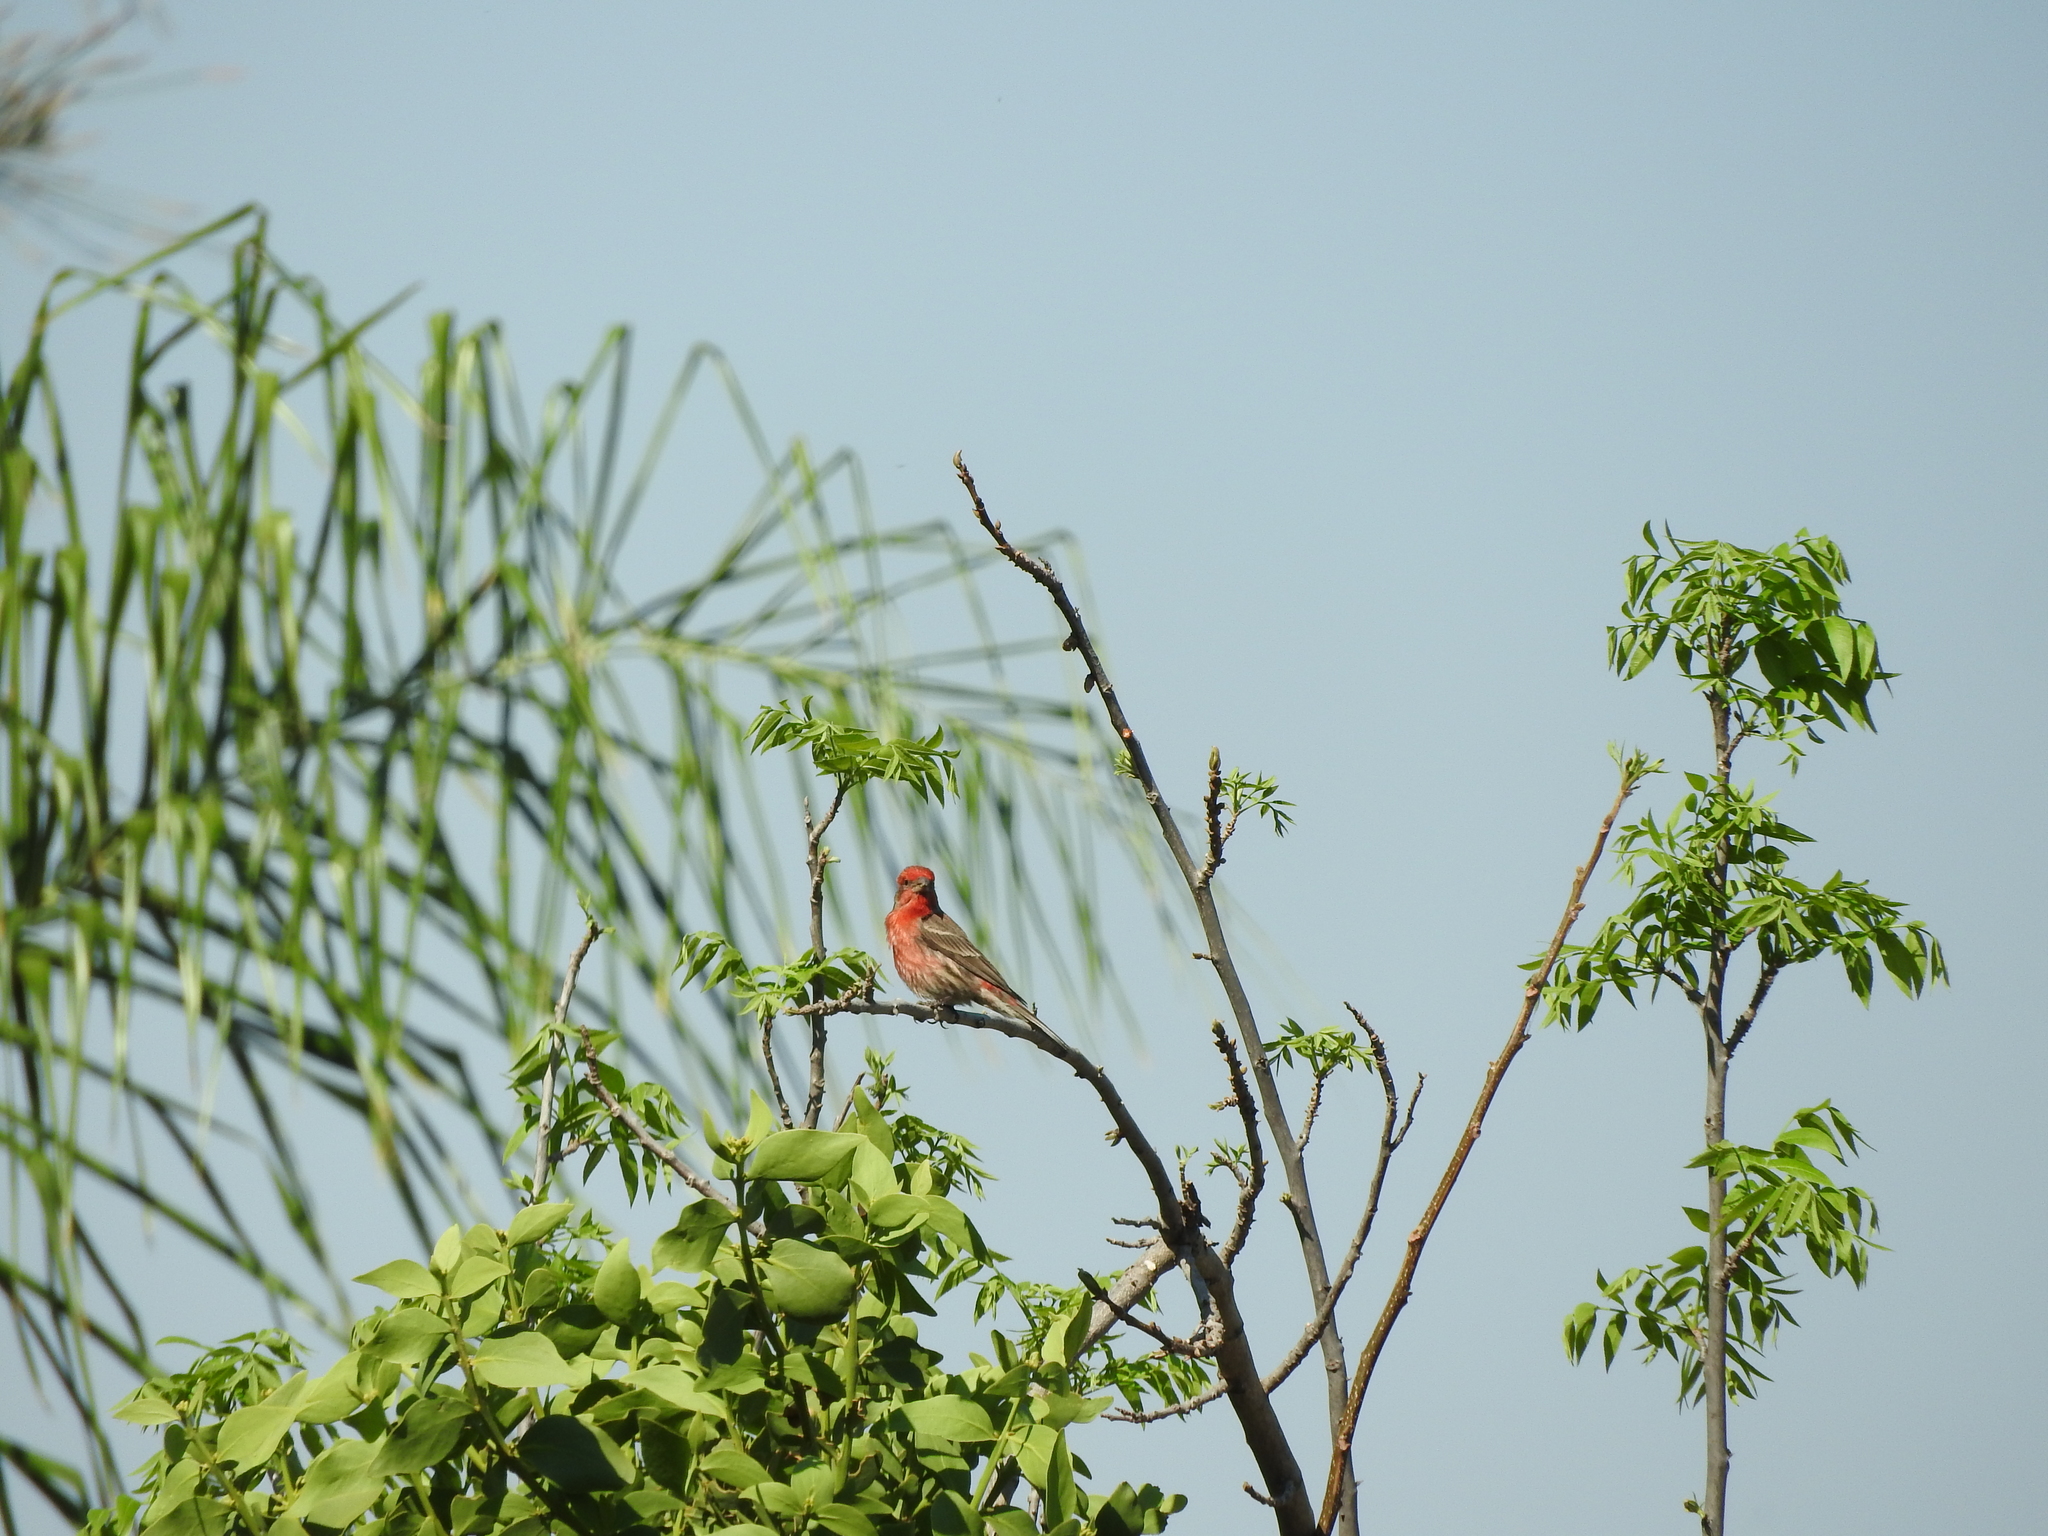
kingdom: Animalia
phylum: Chordata
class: Aves
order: Passeriformes
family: Fringillidae
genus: Haemorhous
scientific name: Haemorhous mexicanus
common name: House finch
